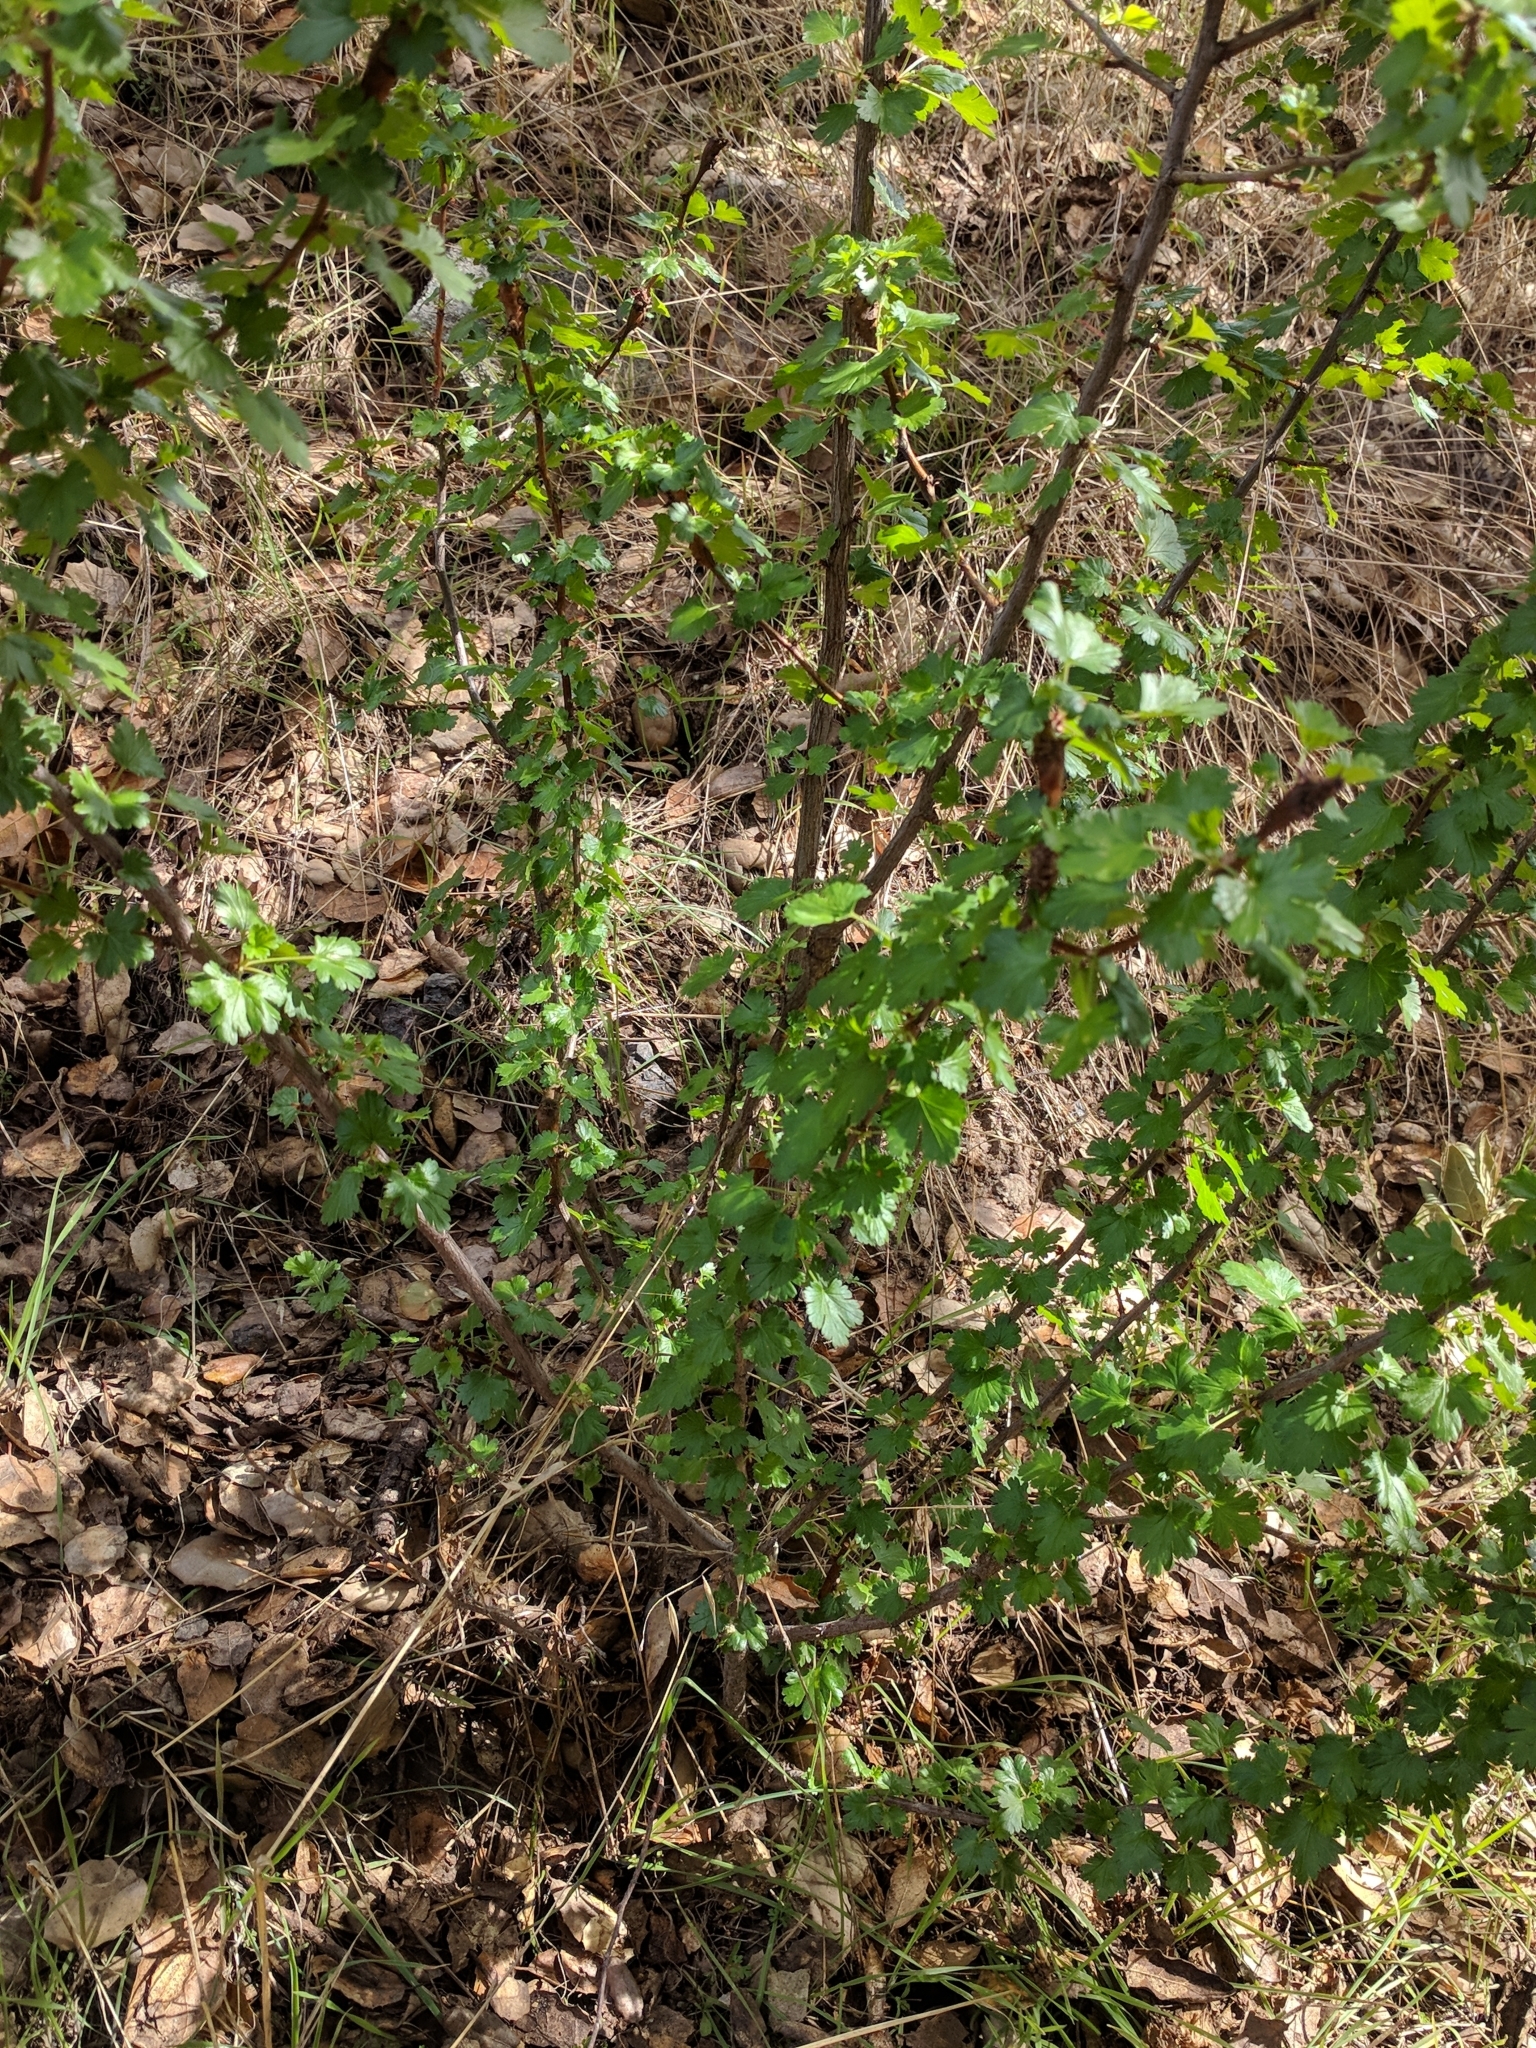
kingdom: Plantae
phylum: Tracheophyta
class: Magnoliopsida
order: Saxifragales
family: Grossulariaceae
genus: Ribes
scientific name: Ribes californicum
